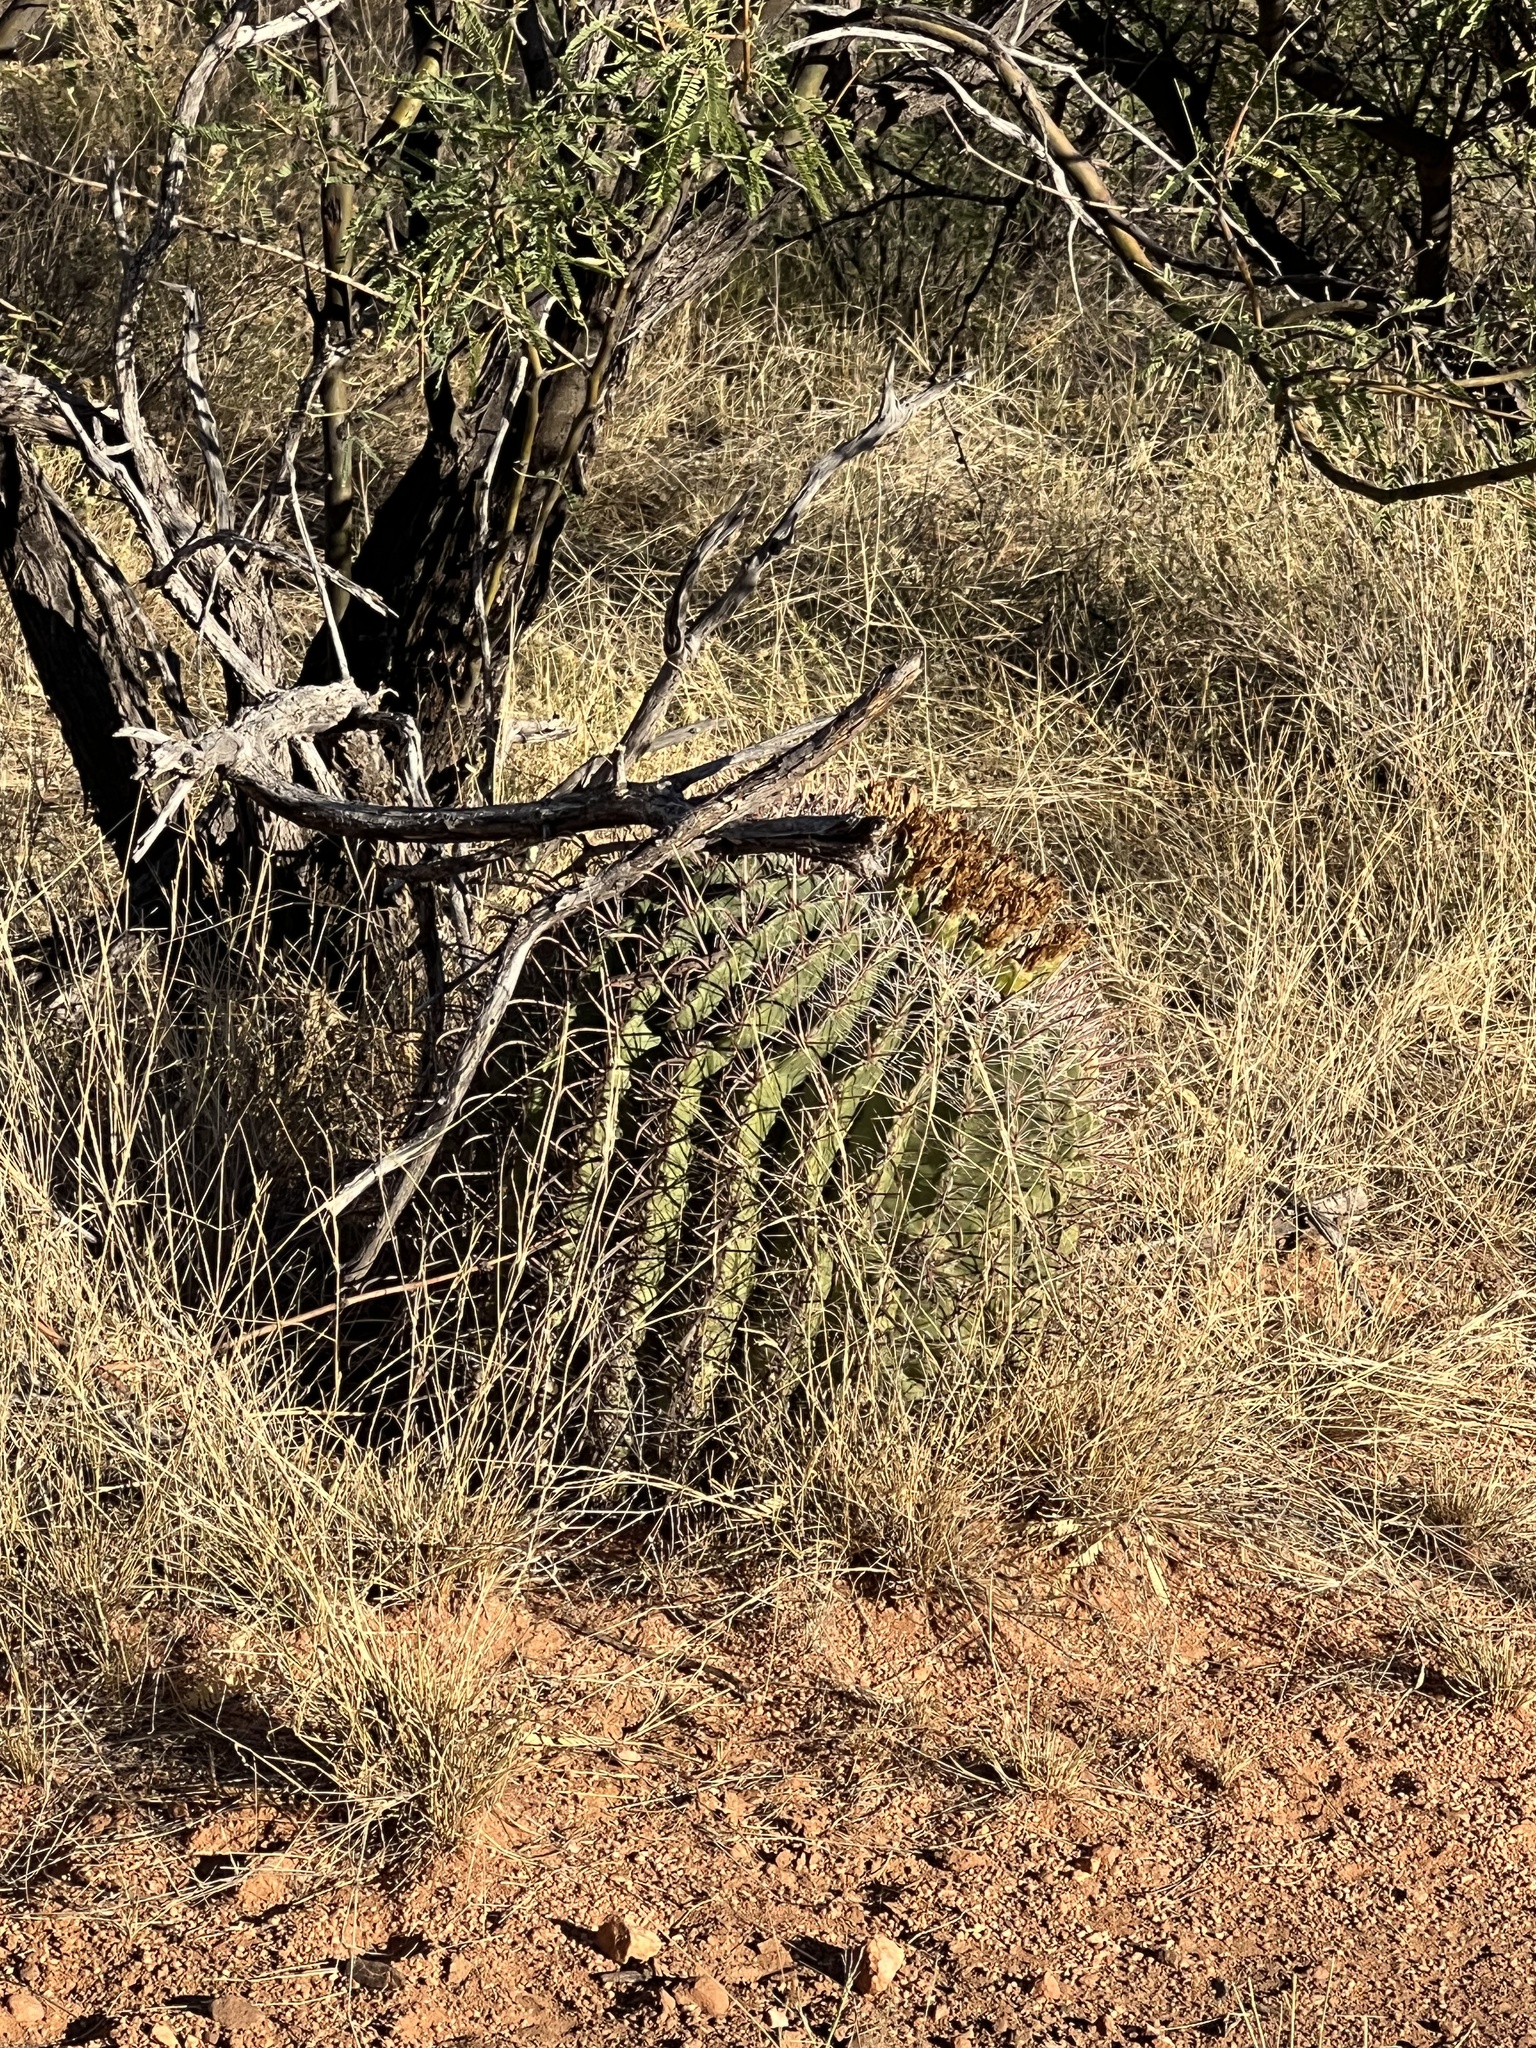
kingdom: Plantae
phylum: Tracheophyta
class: Magnoliopsida
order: Caryophyllales
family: Cactaceae
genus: Ferocactus
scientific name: Ferocactus wislizeni
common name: Candy barrel cactus
